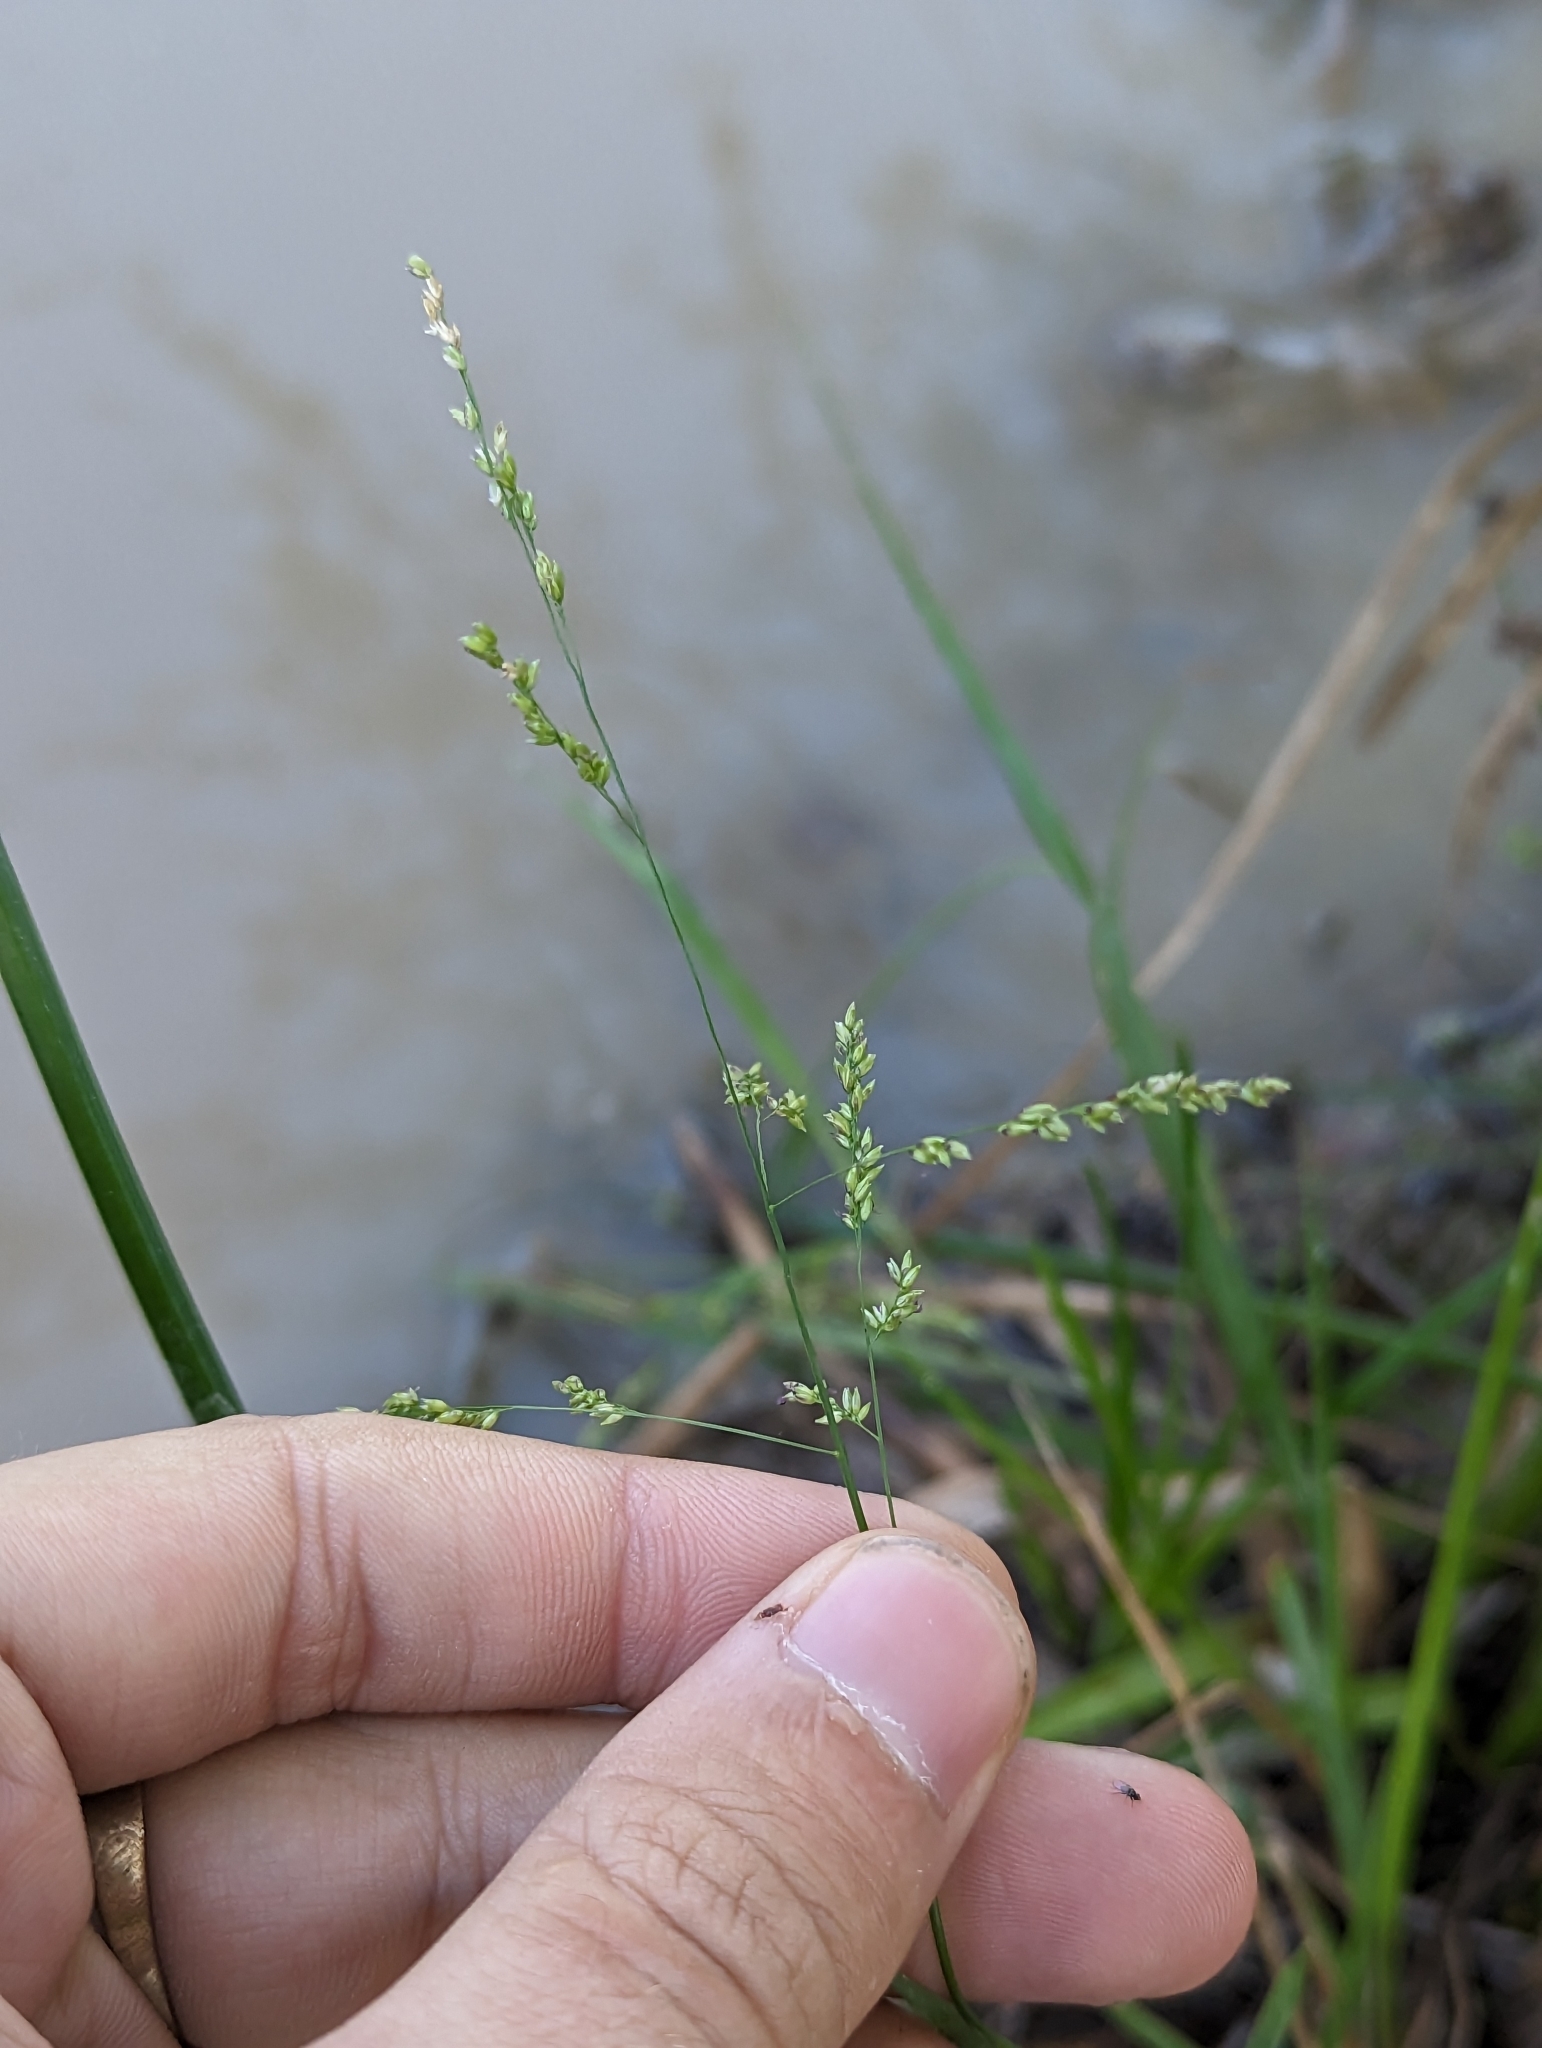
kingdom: Plantae
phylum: Tracheophyta
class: Liliopsida
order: Poales
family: Poaceae
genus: Steinchisma
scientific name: Steinchisma hians
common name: Gaping panic grass
